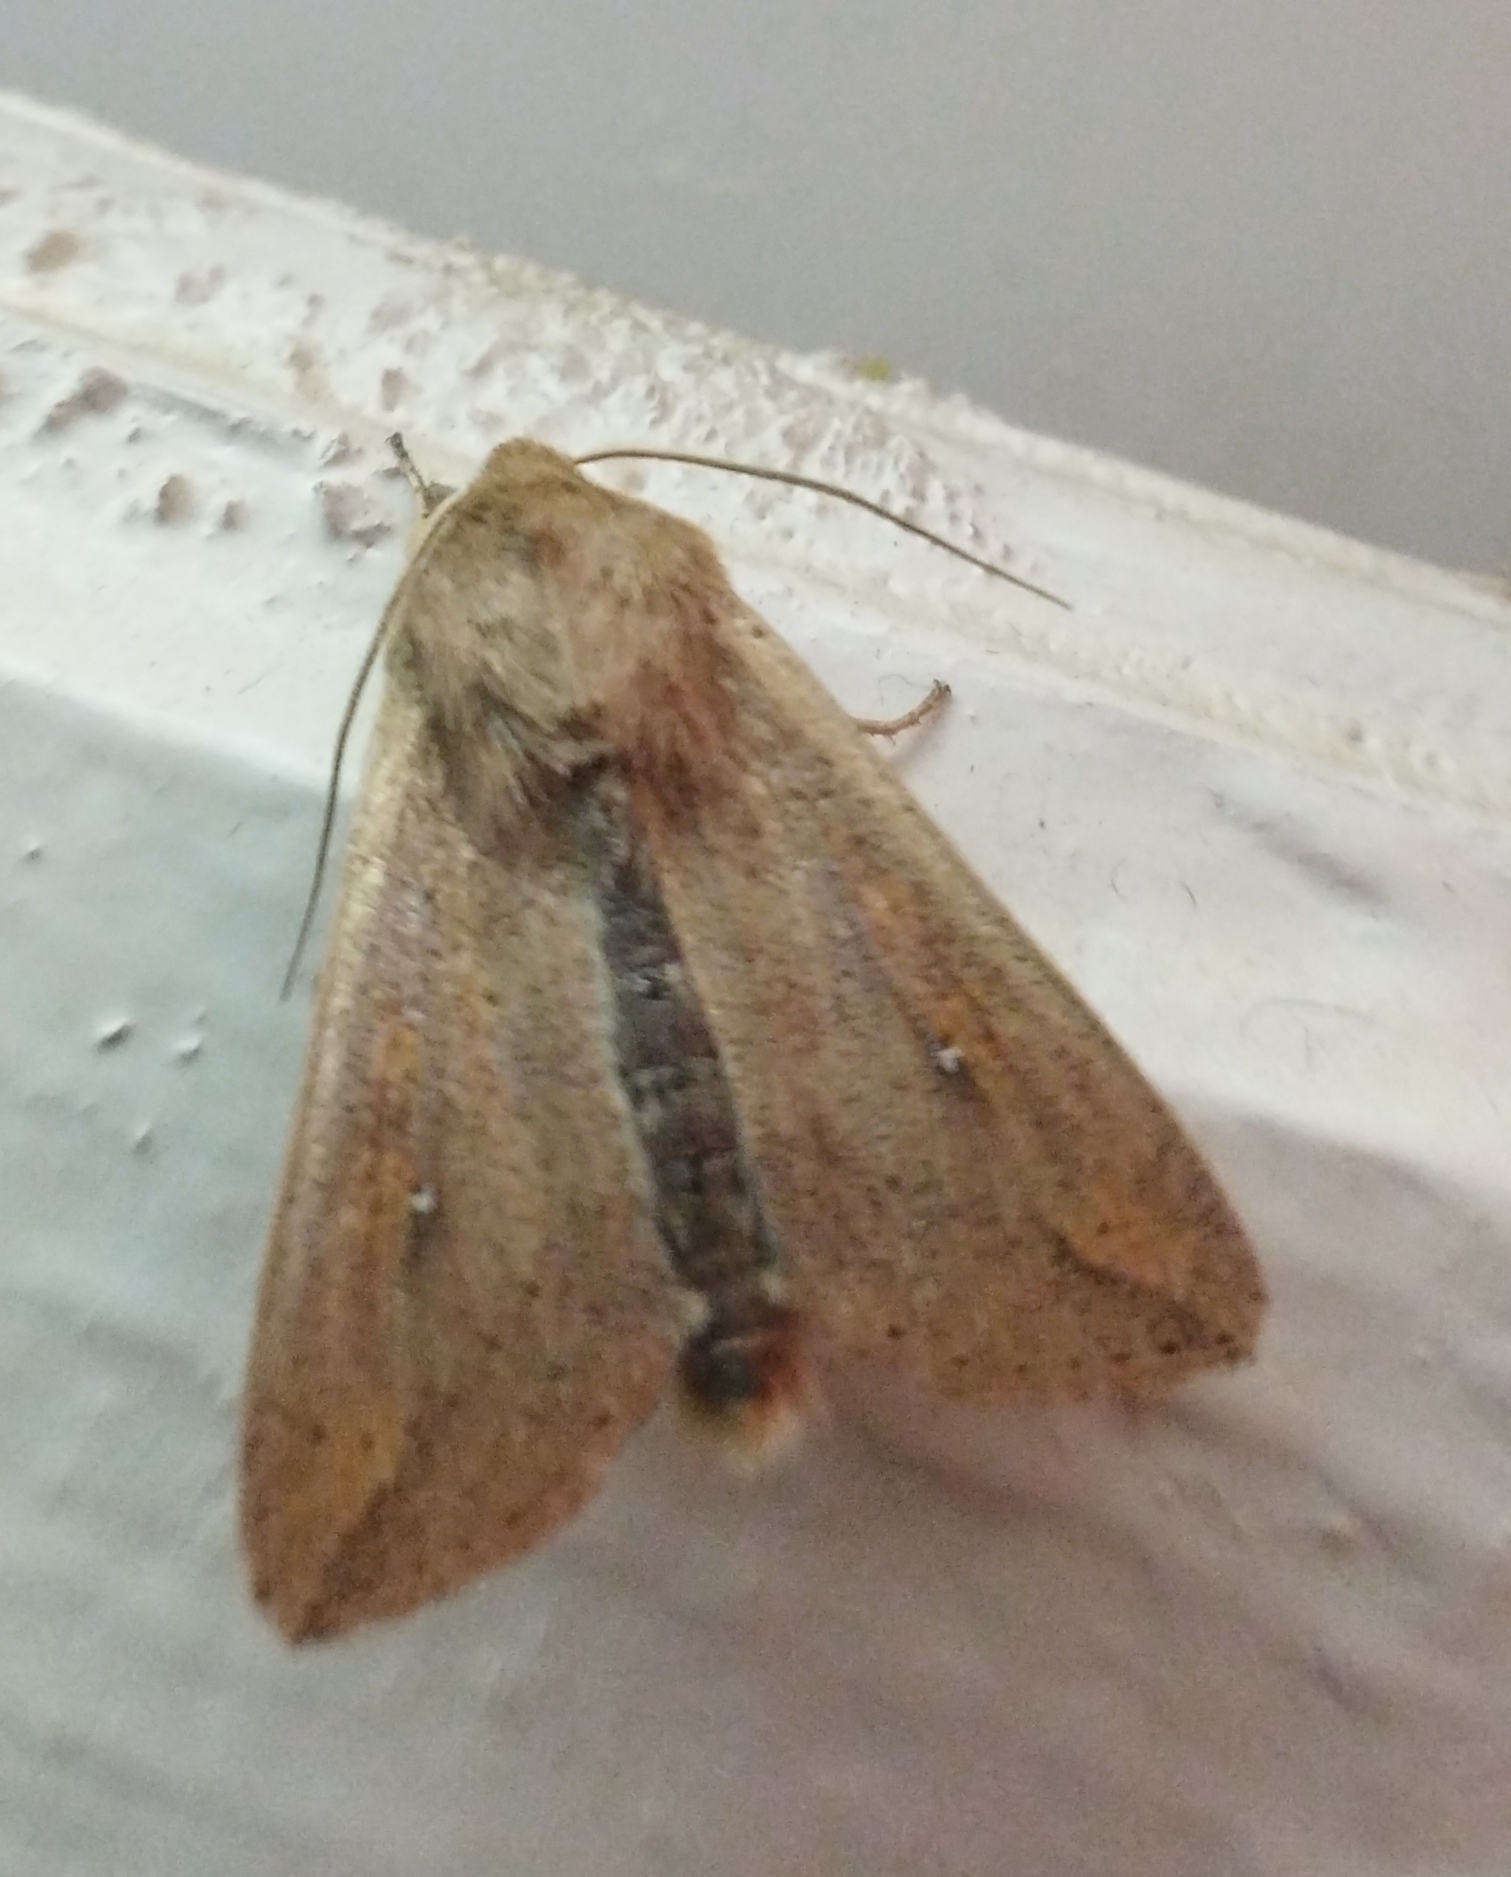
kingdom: Animalia
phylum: Arthropoda
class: Insecta
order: Lepidoptera
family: Noctuidae
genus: Mythimna
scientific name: Mythimna unipuncta
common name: White-speck
